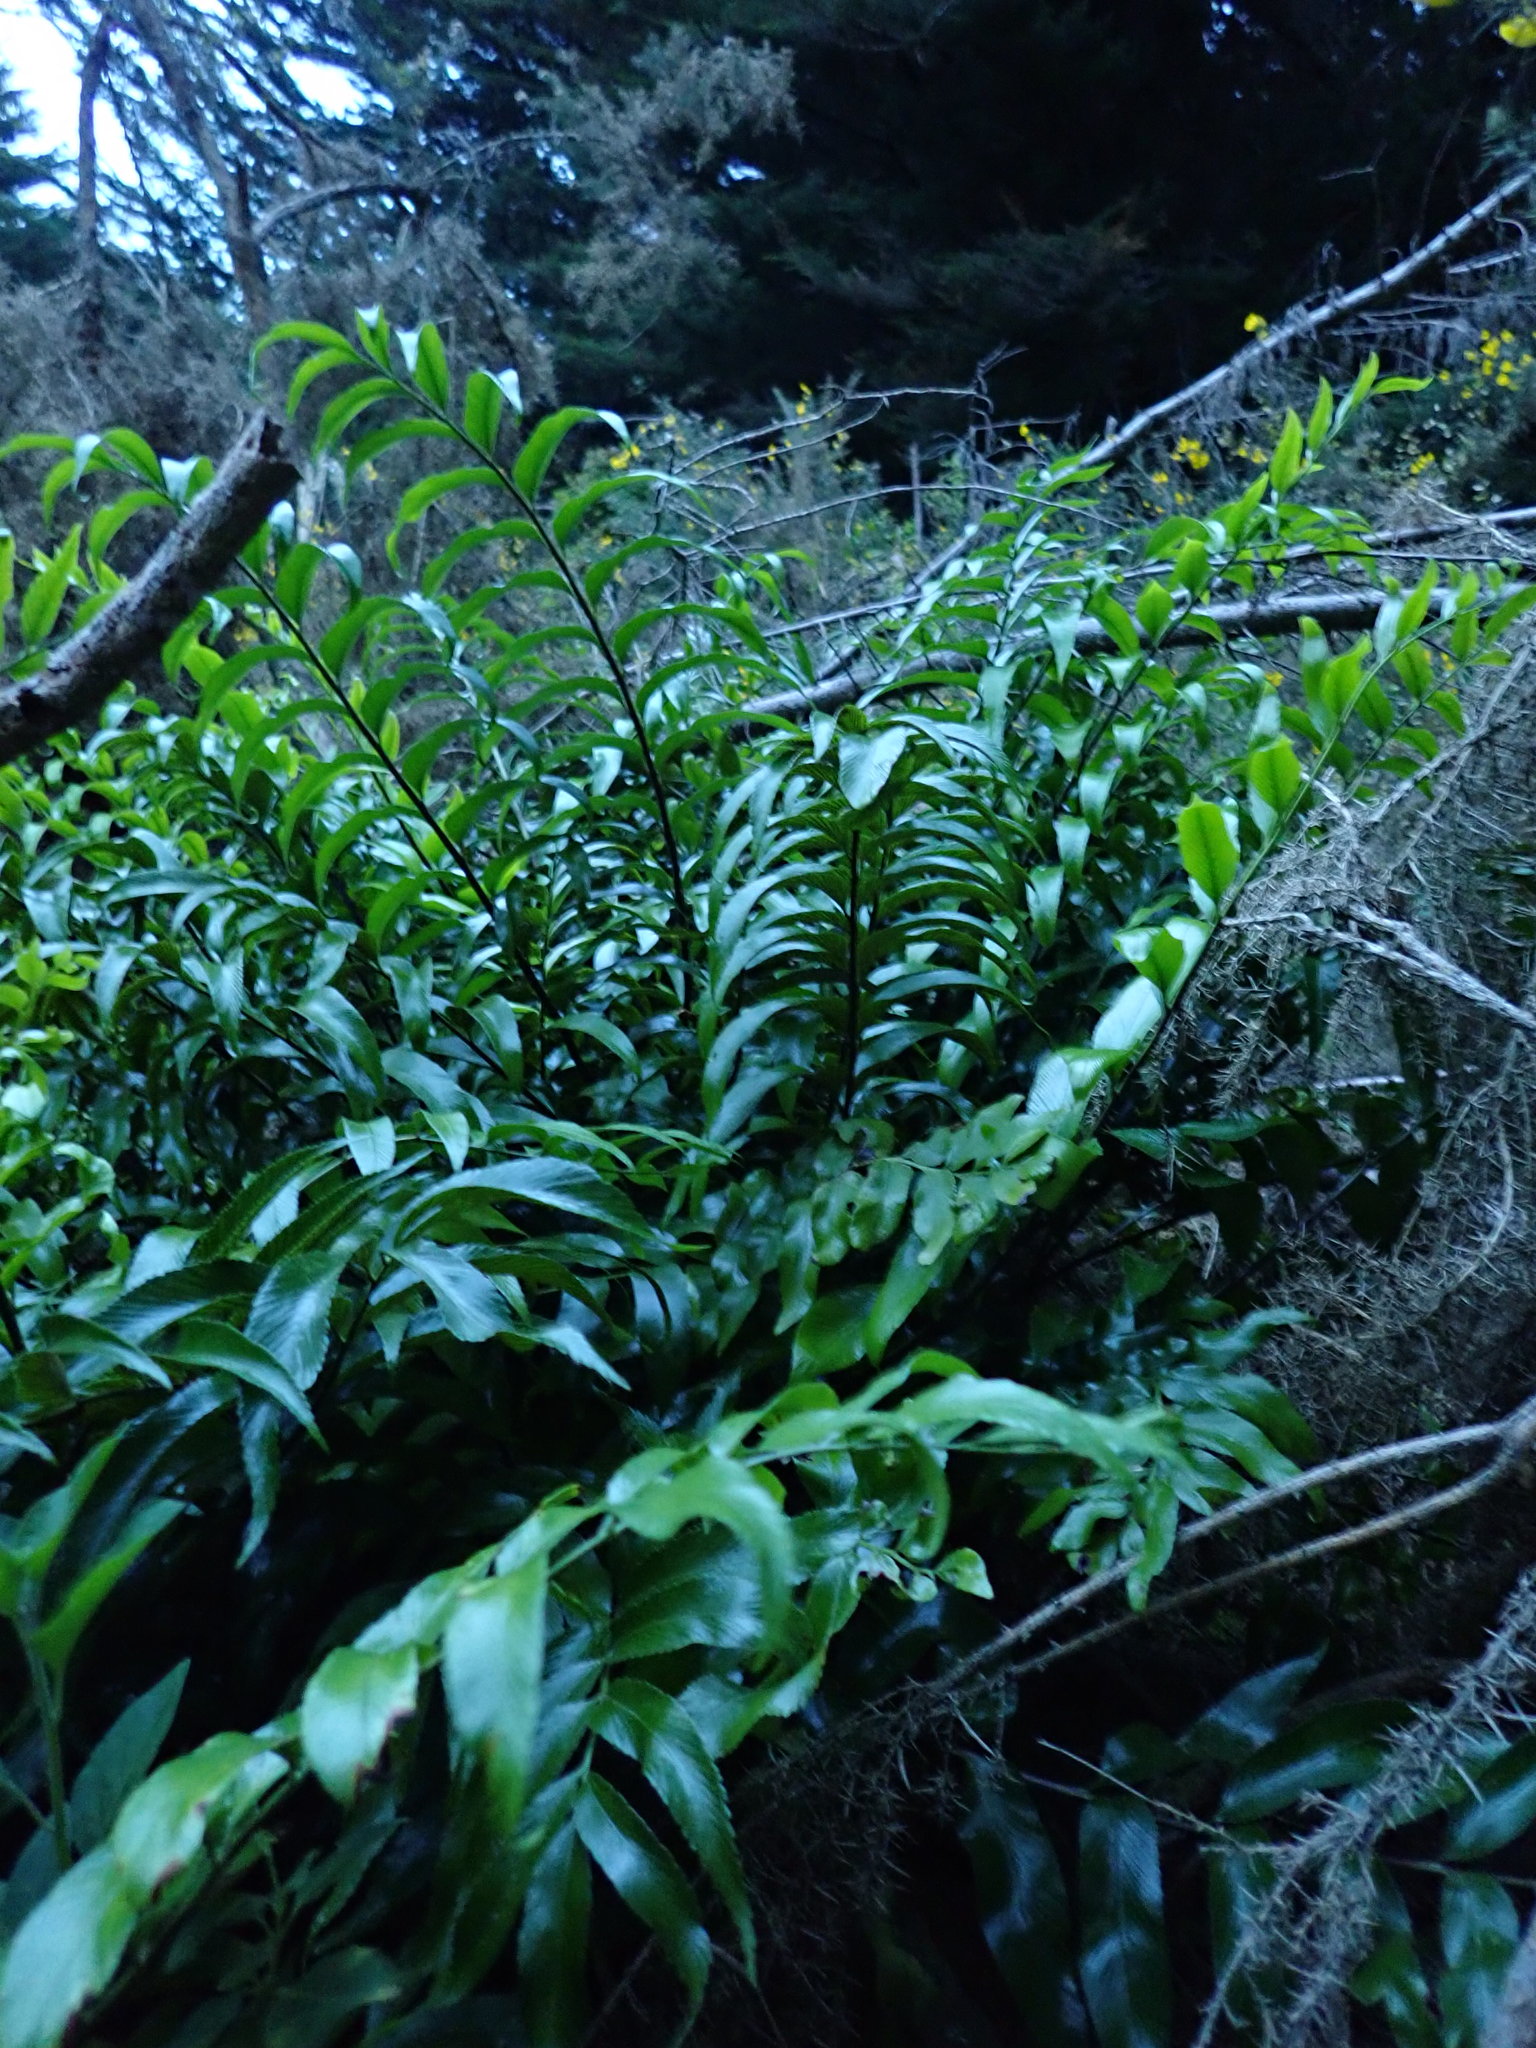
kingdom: Plantae
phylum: Tracheophyta
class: Polypodiopsida
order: Polypodiales
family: Aspleniaceae
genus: Asplenium
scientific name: Asplenium oblongifolium
